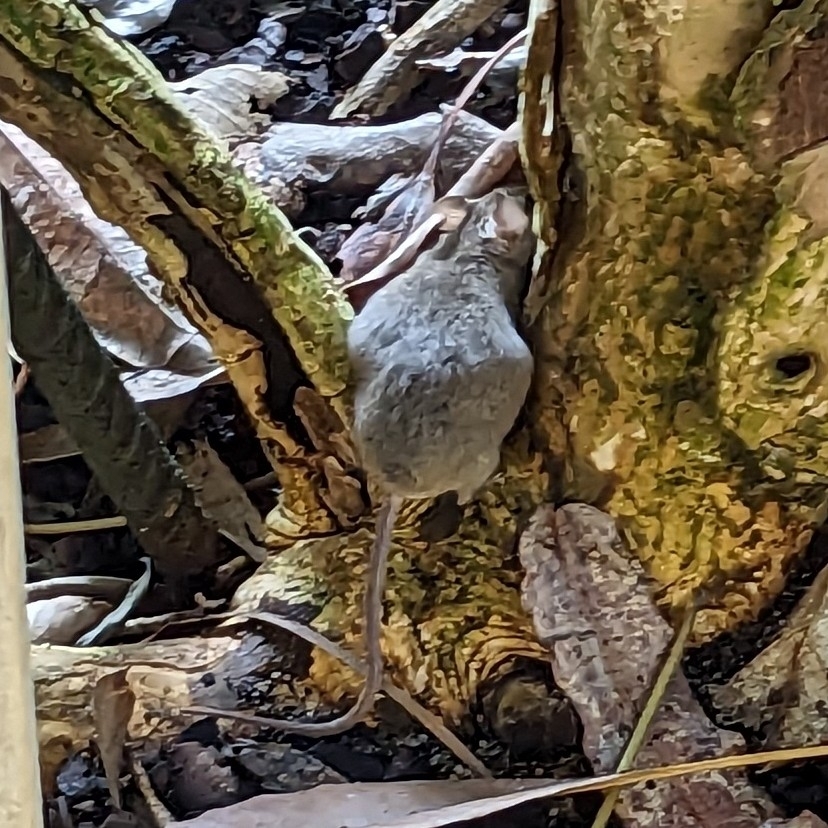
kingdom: Animalia
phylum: Chordata
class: Mammalia
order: Rodentia
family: Muridae
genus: Mus
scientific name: Mus musculus
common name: House mouse
